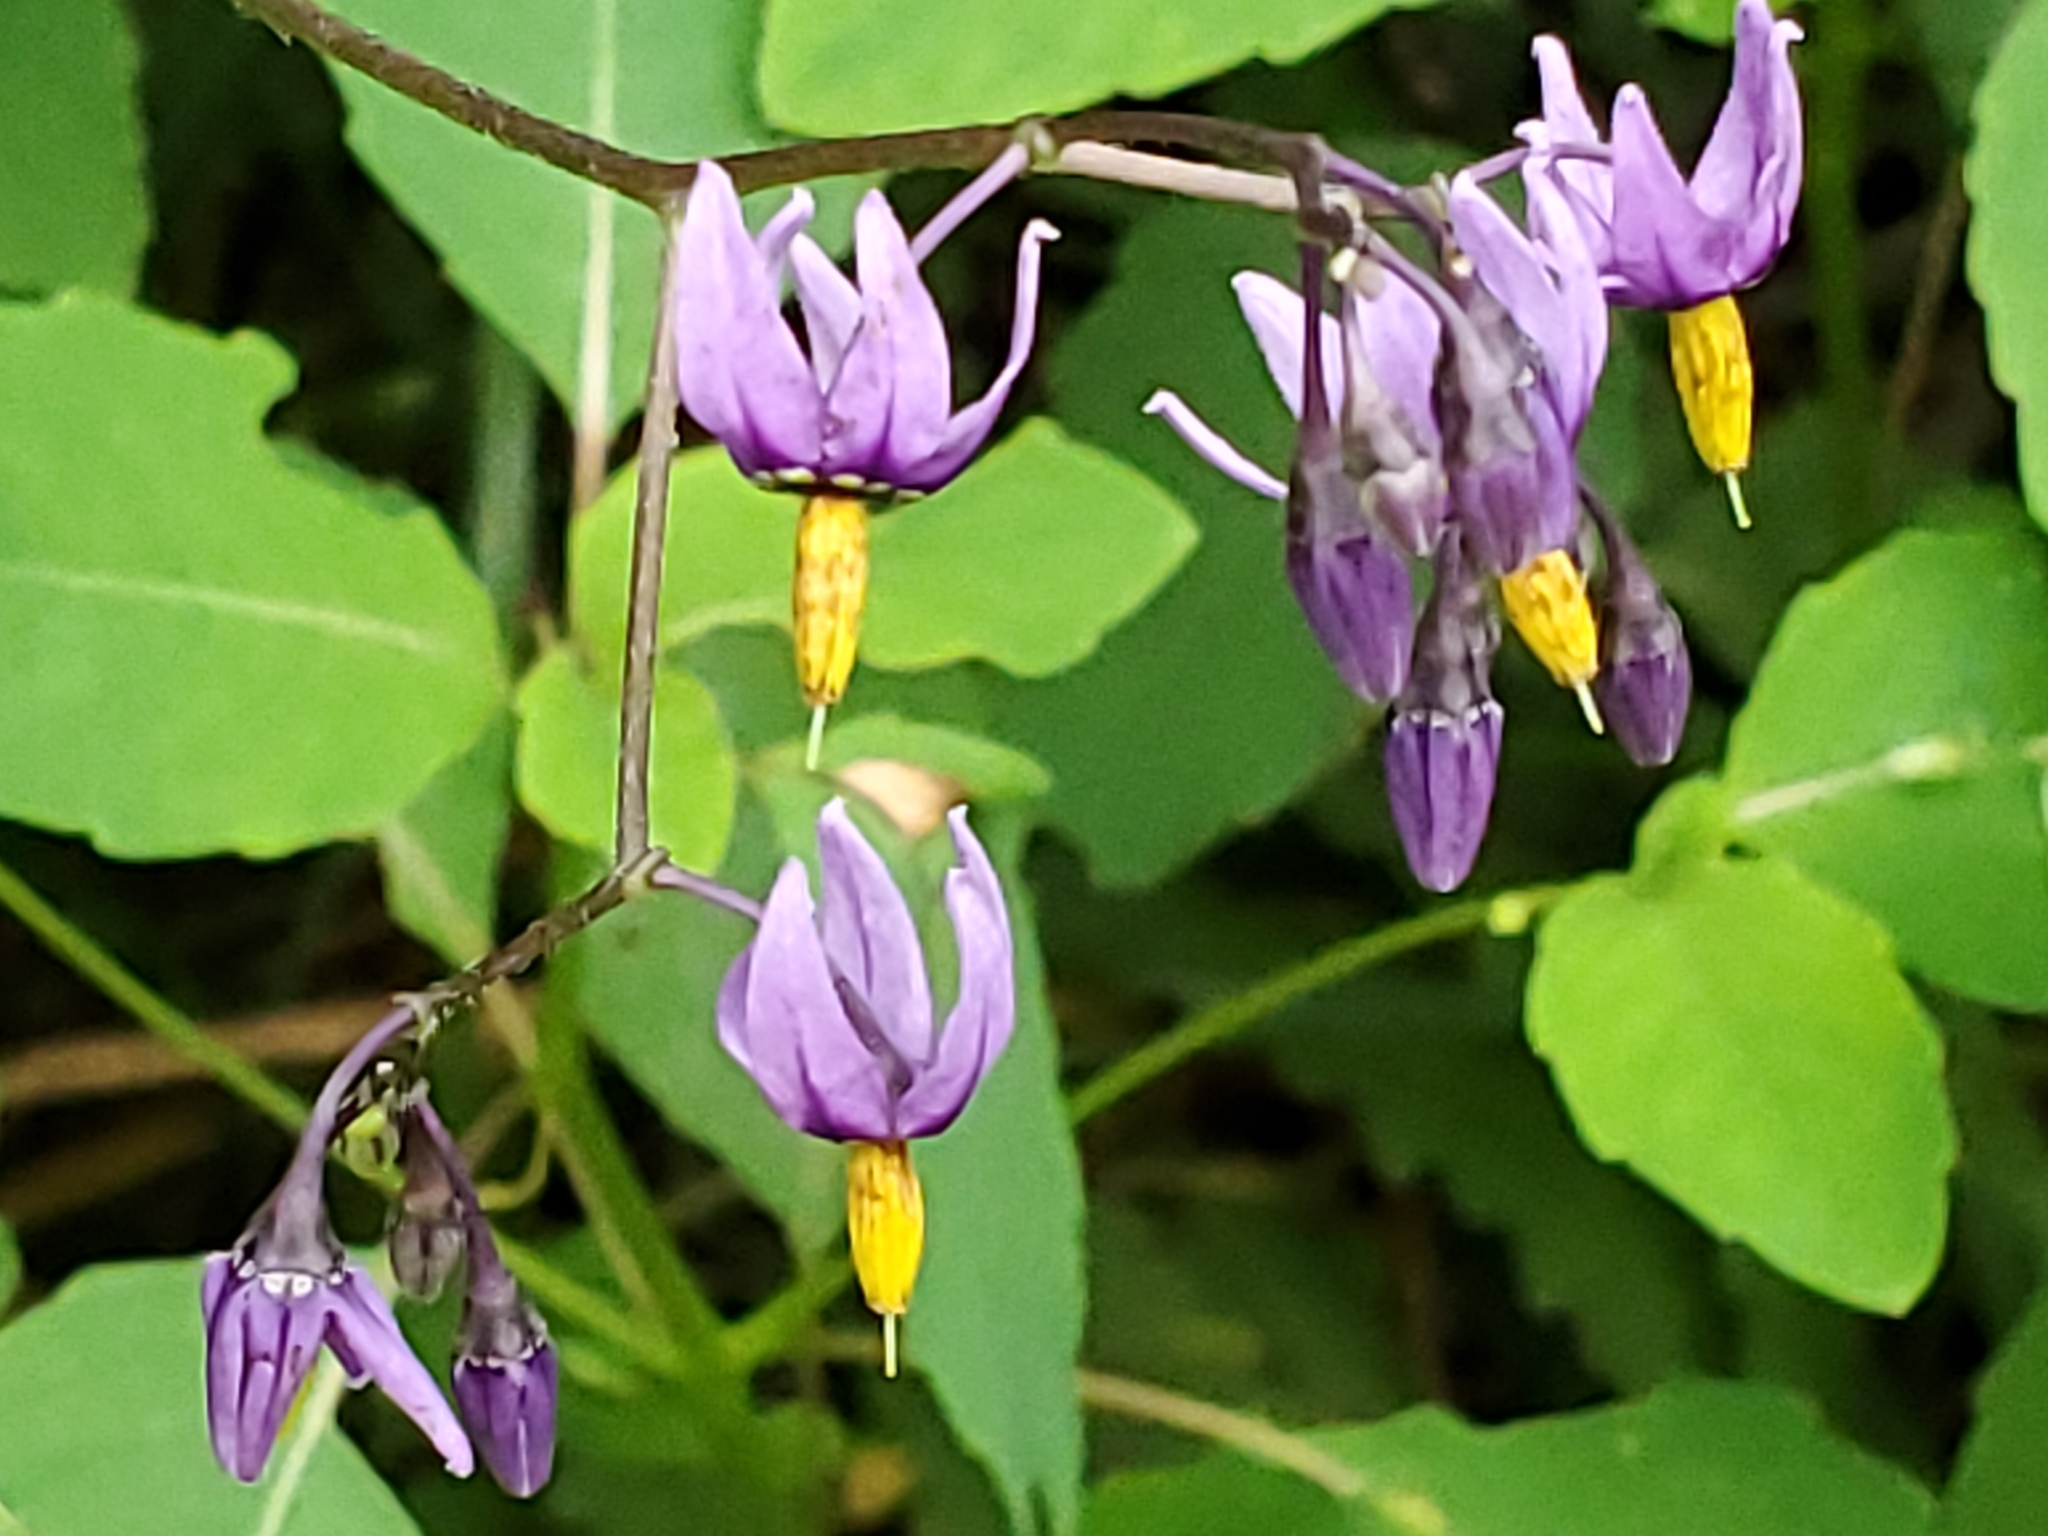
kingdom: Plantae
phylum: Tracheophyta
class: Magnoliopsida
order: Solanales
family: Solanaceae
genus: Solanum
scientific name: Solanum dulcamara
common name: Climbing nightshade
